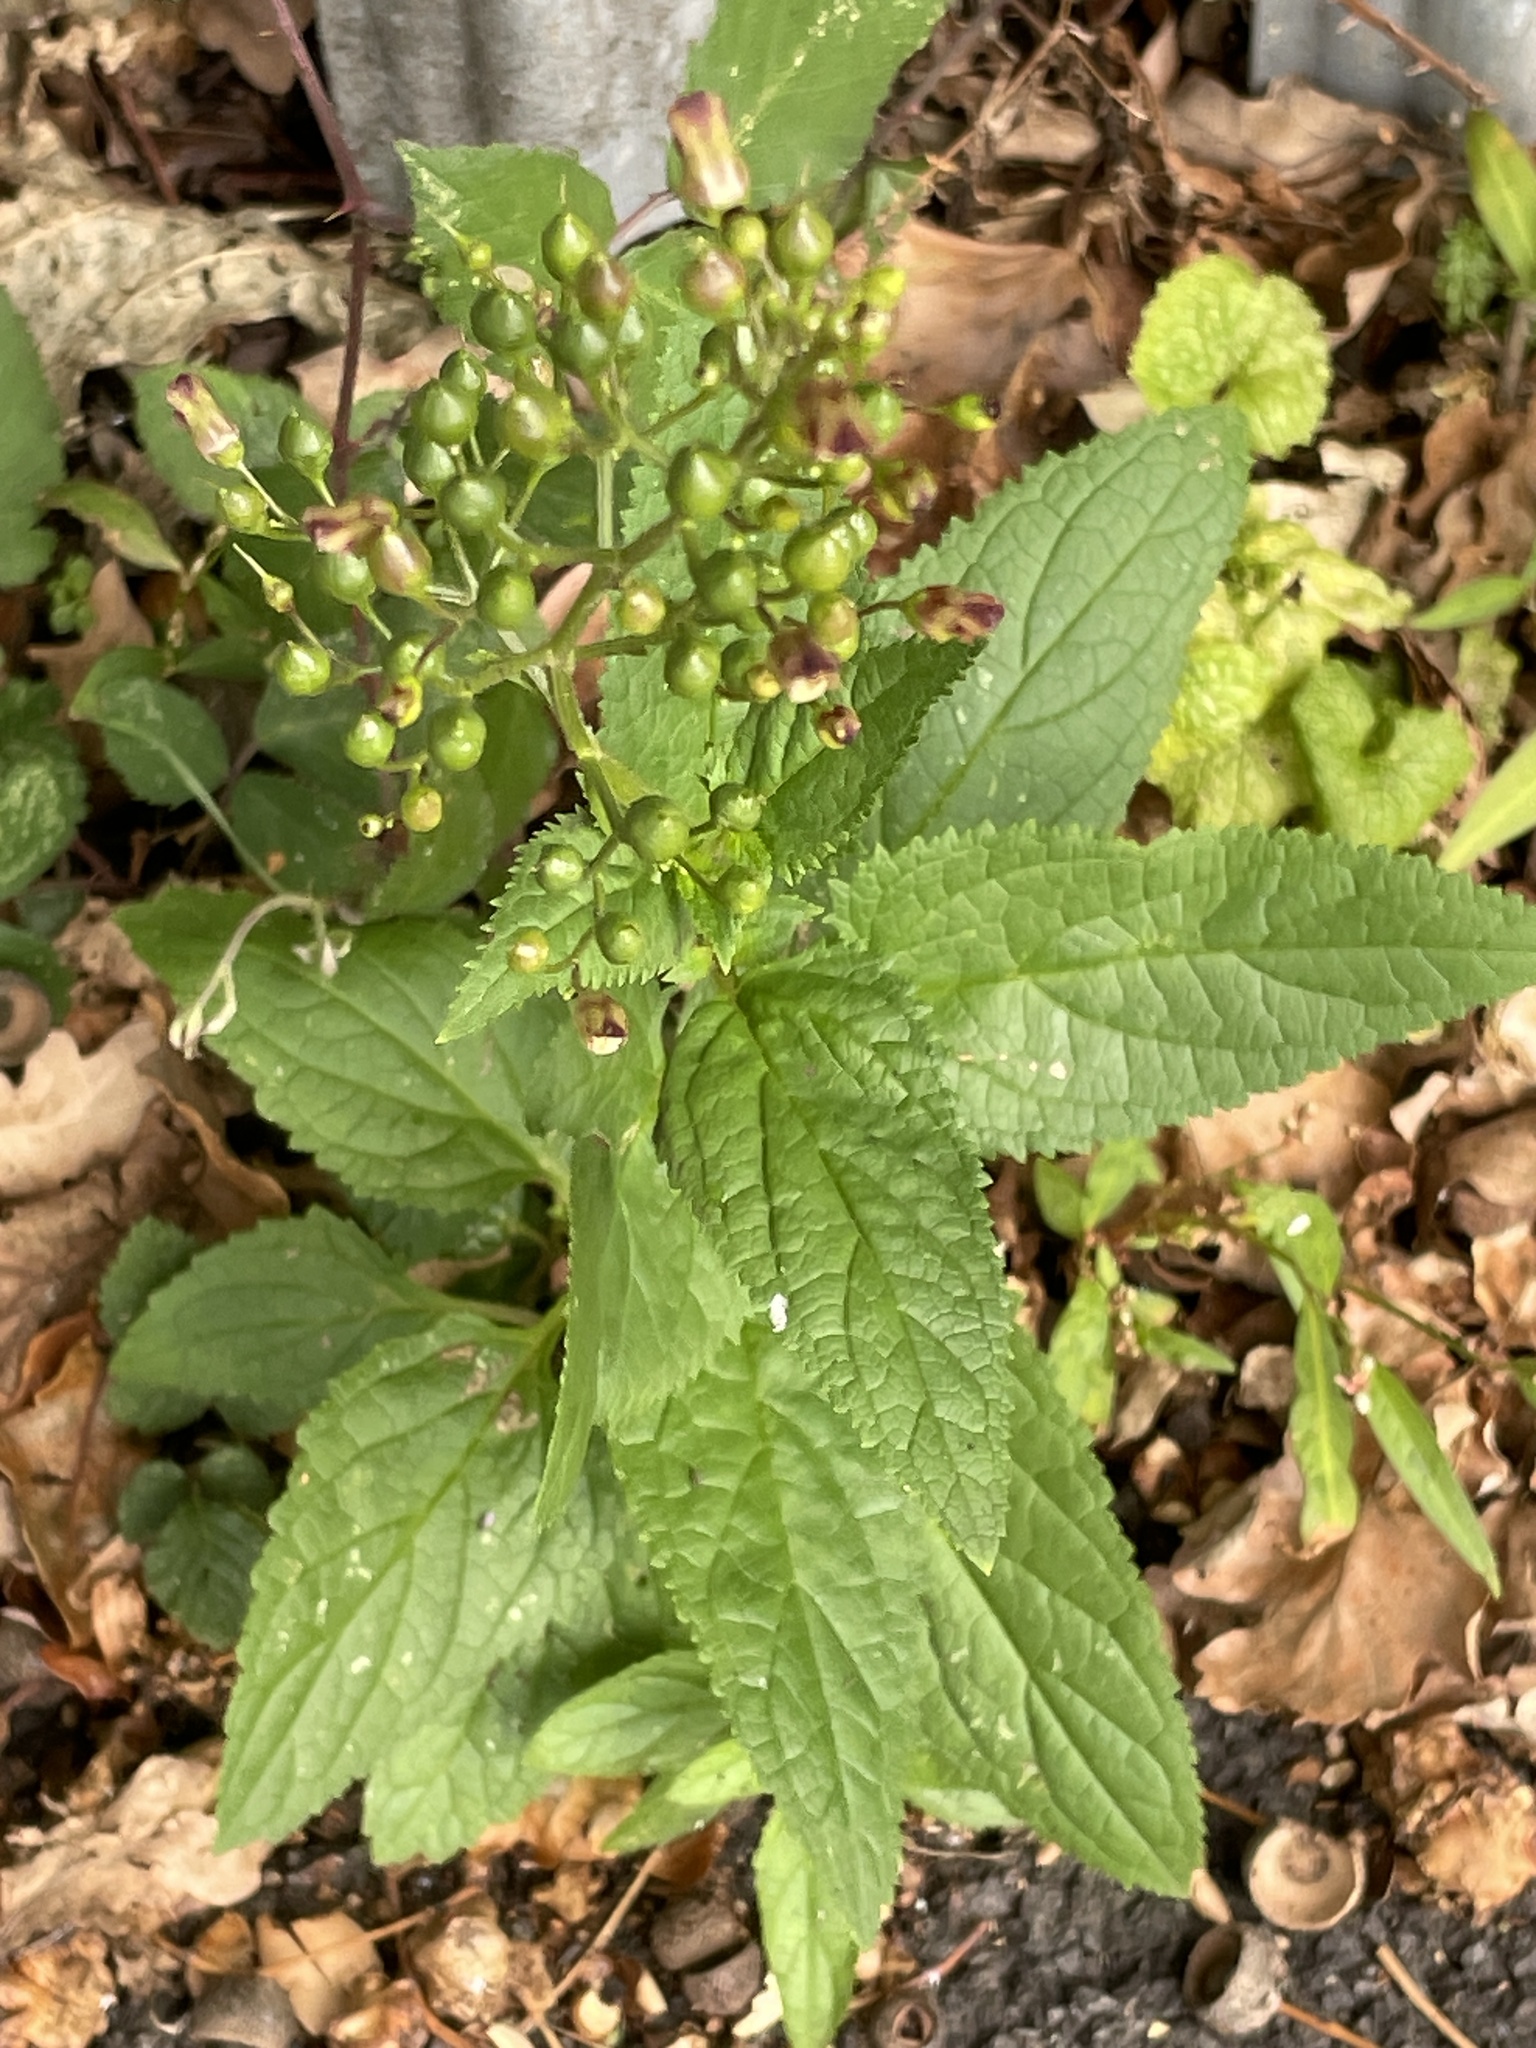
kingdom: Plantae
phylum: Tracheophyta
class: Magnoliopsida
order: Lamiales
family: Scrophulariaceae
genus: Scrophularia
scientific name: Scrophularia nodosa
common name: Common figwort
